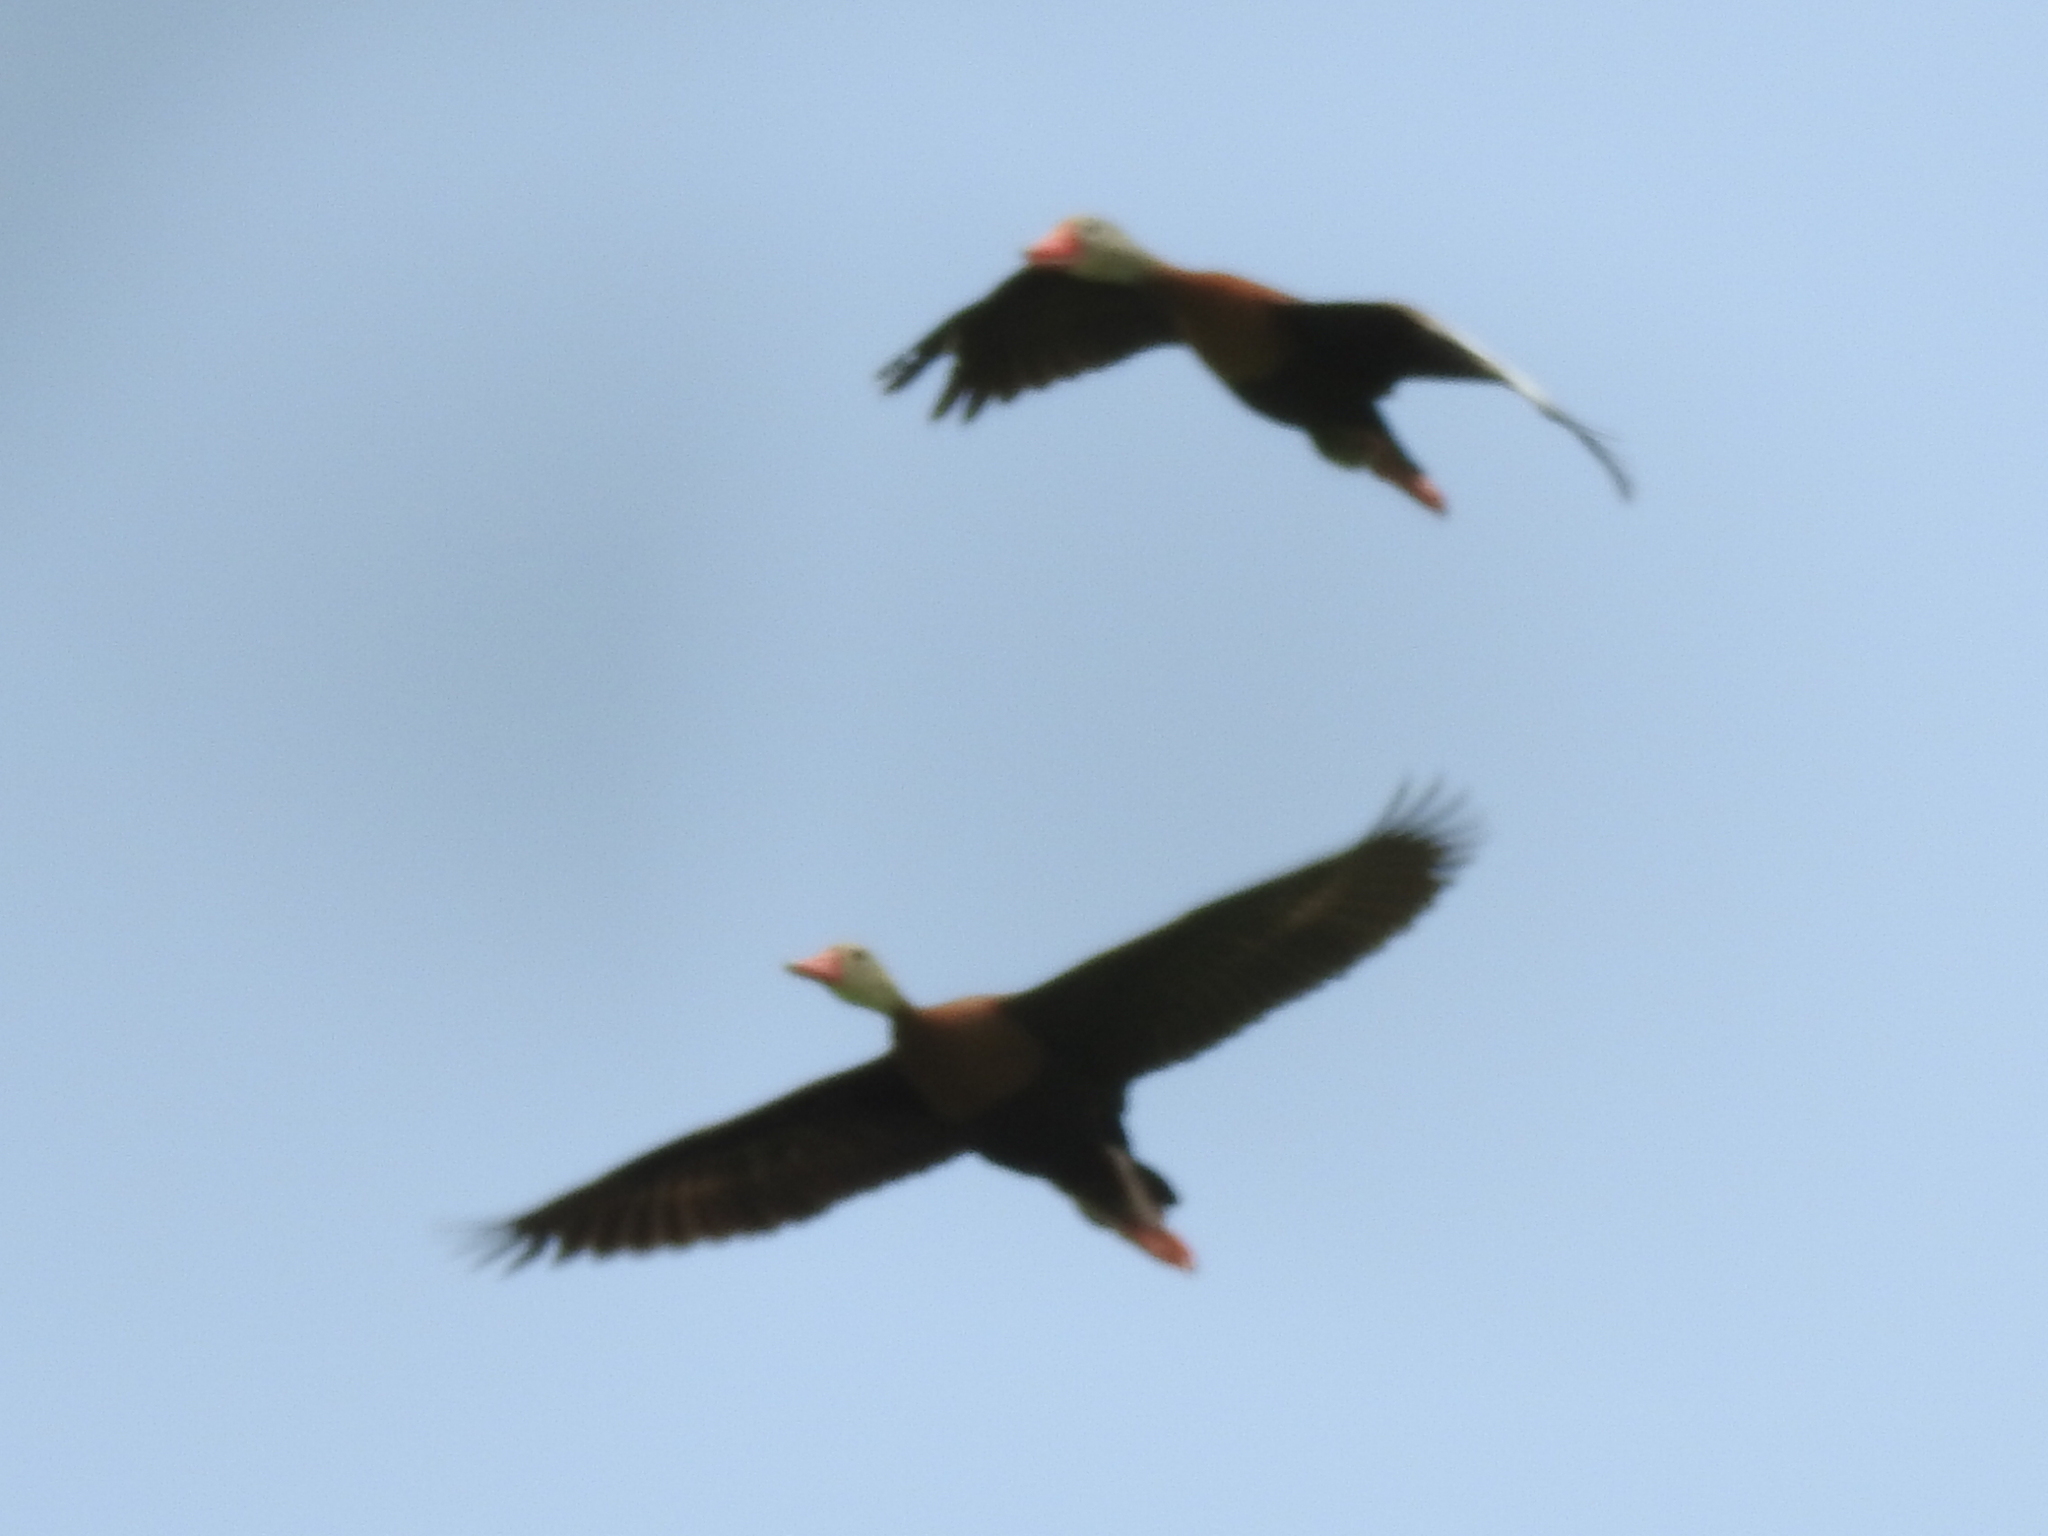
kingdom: Animalia
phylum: Chordata
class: Aves
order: Anseriformes
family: Anatidae
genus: Dendrocygna
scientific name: Dendrocygna autumnalis
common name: Black-bellied whistling duck
